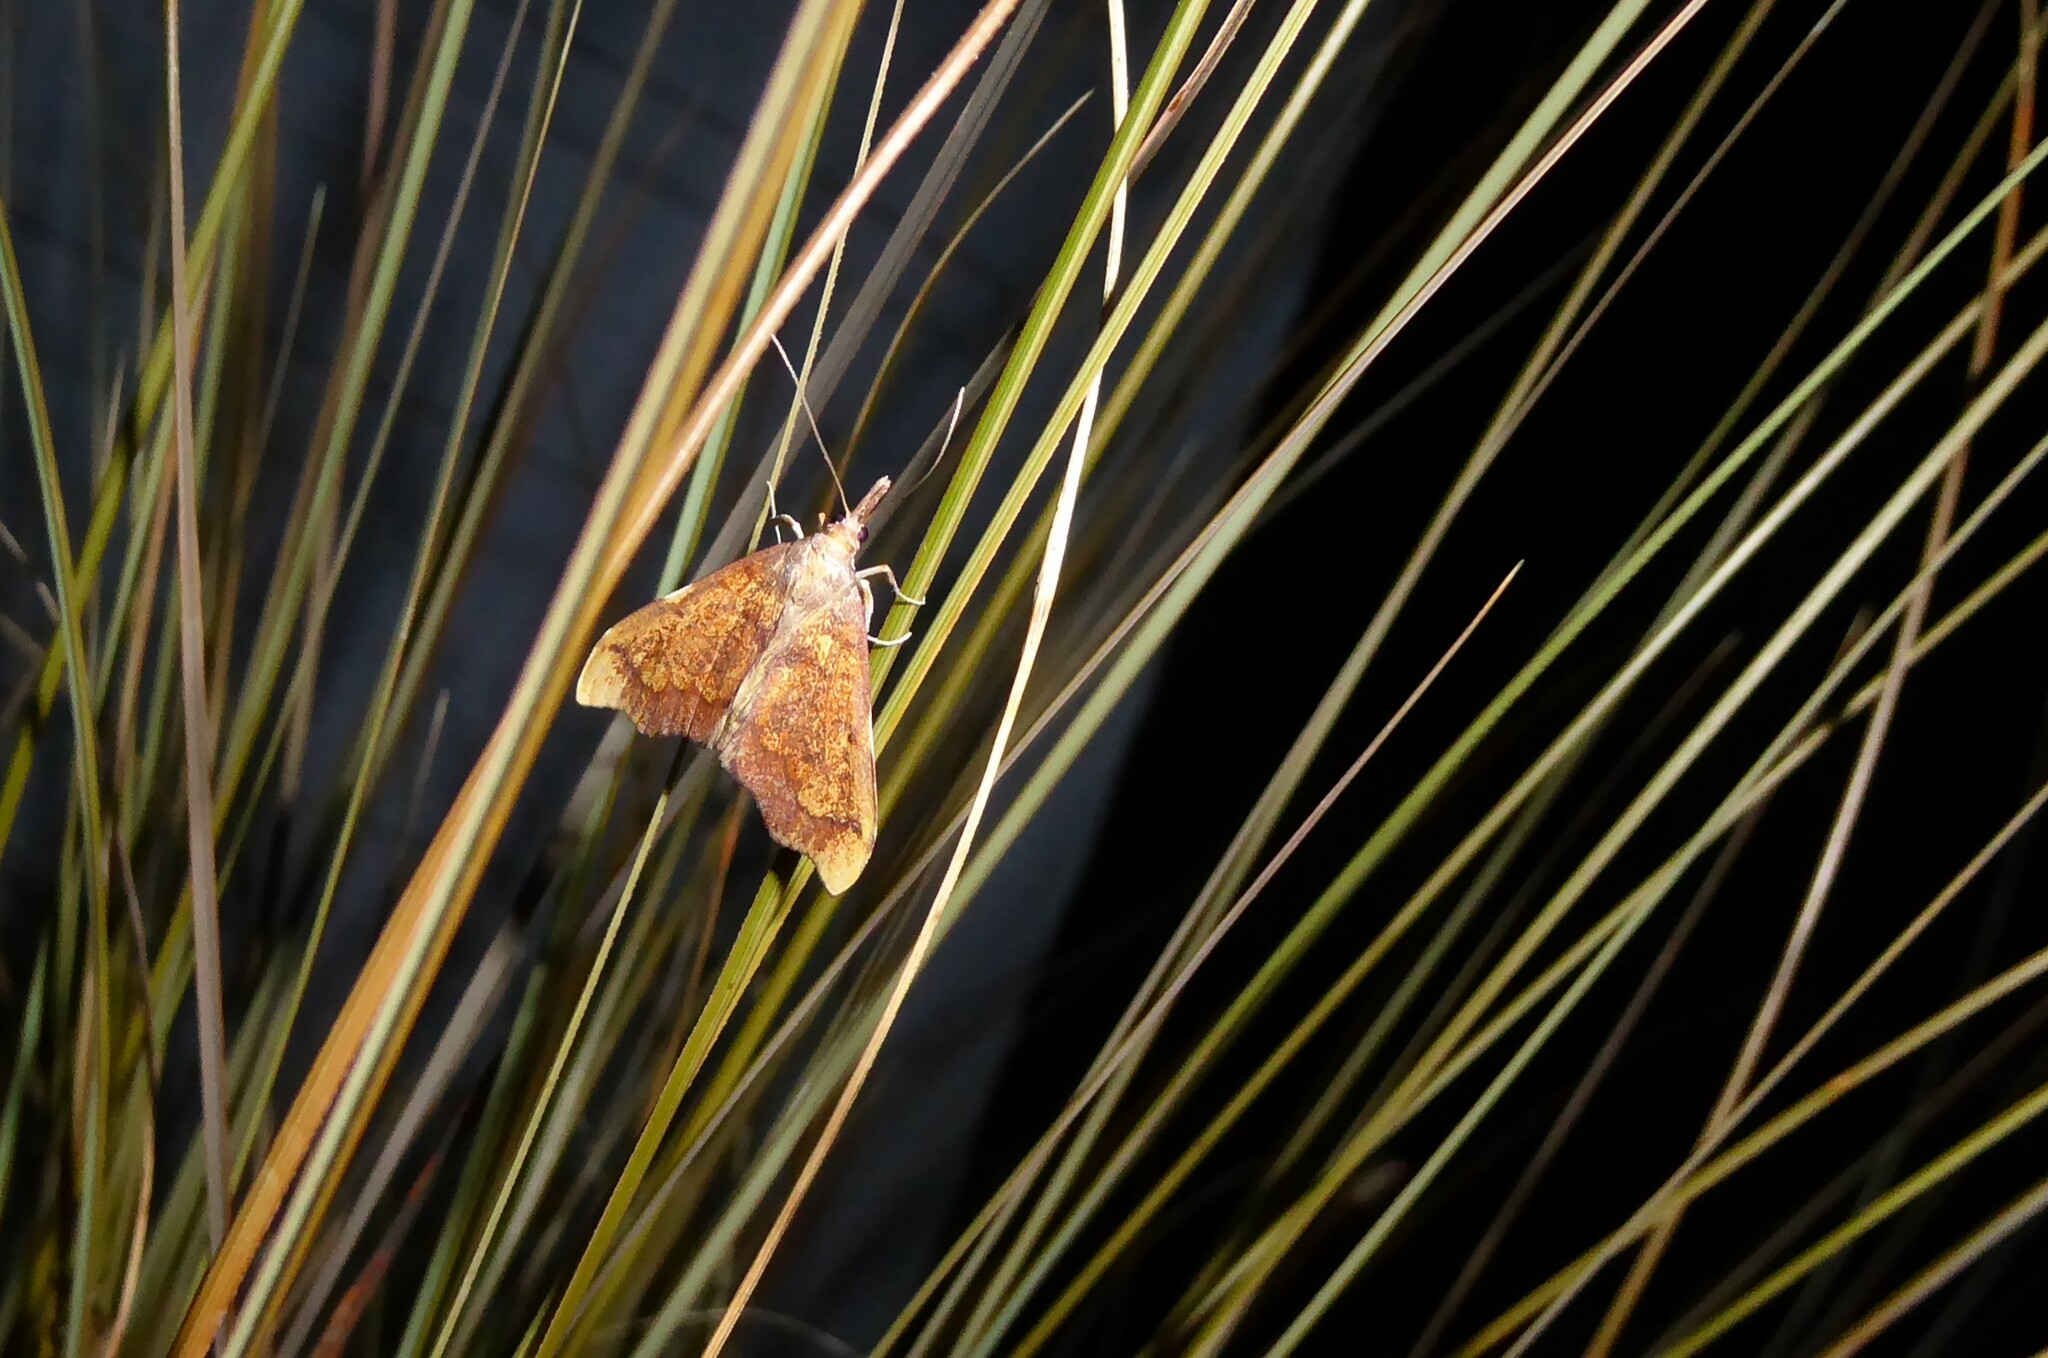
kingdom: Animalia
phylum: Arthropoda
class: Insecta
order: Lepidoptera
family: Crambidae
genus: Deana
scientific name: Deana hybreasalis
